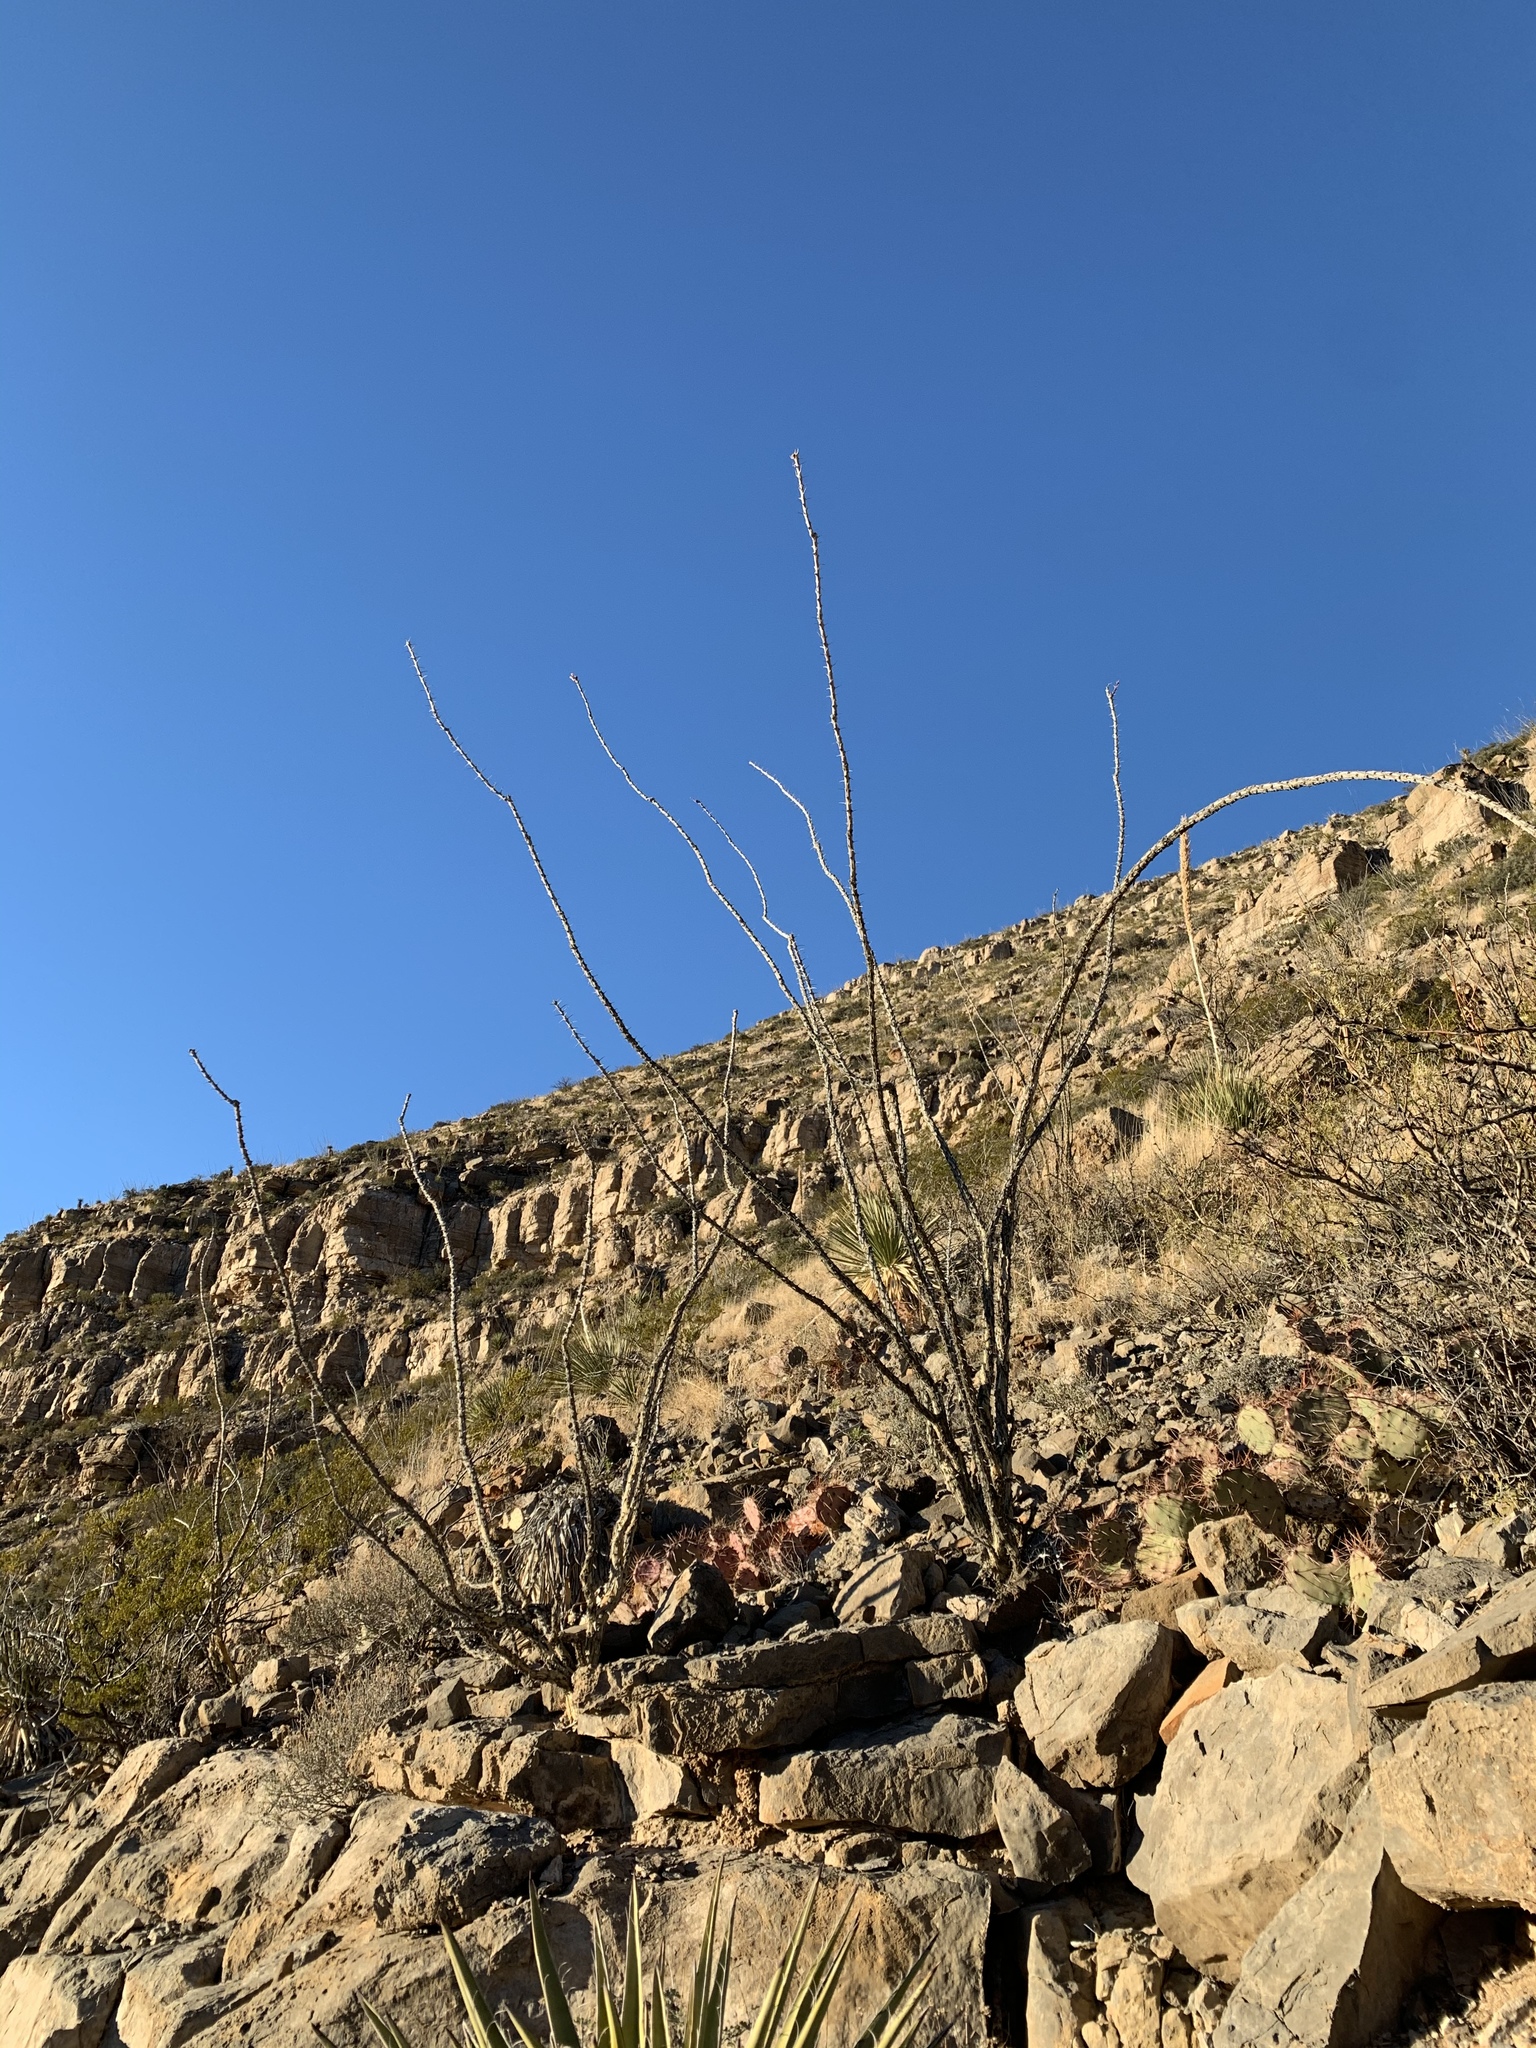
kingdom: Plantae
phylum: Tracheophyta
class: Magnoliopsida
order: Ericales
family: Fouquieriaceae
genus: Fouquieria
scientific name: Fouquieria splendens
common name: Vine-cactus
